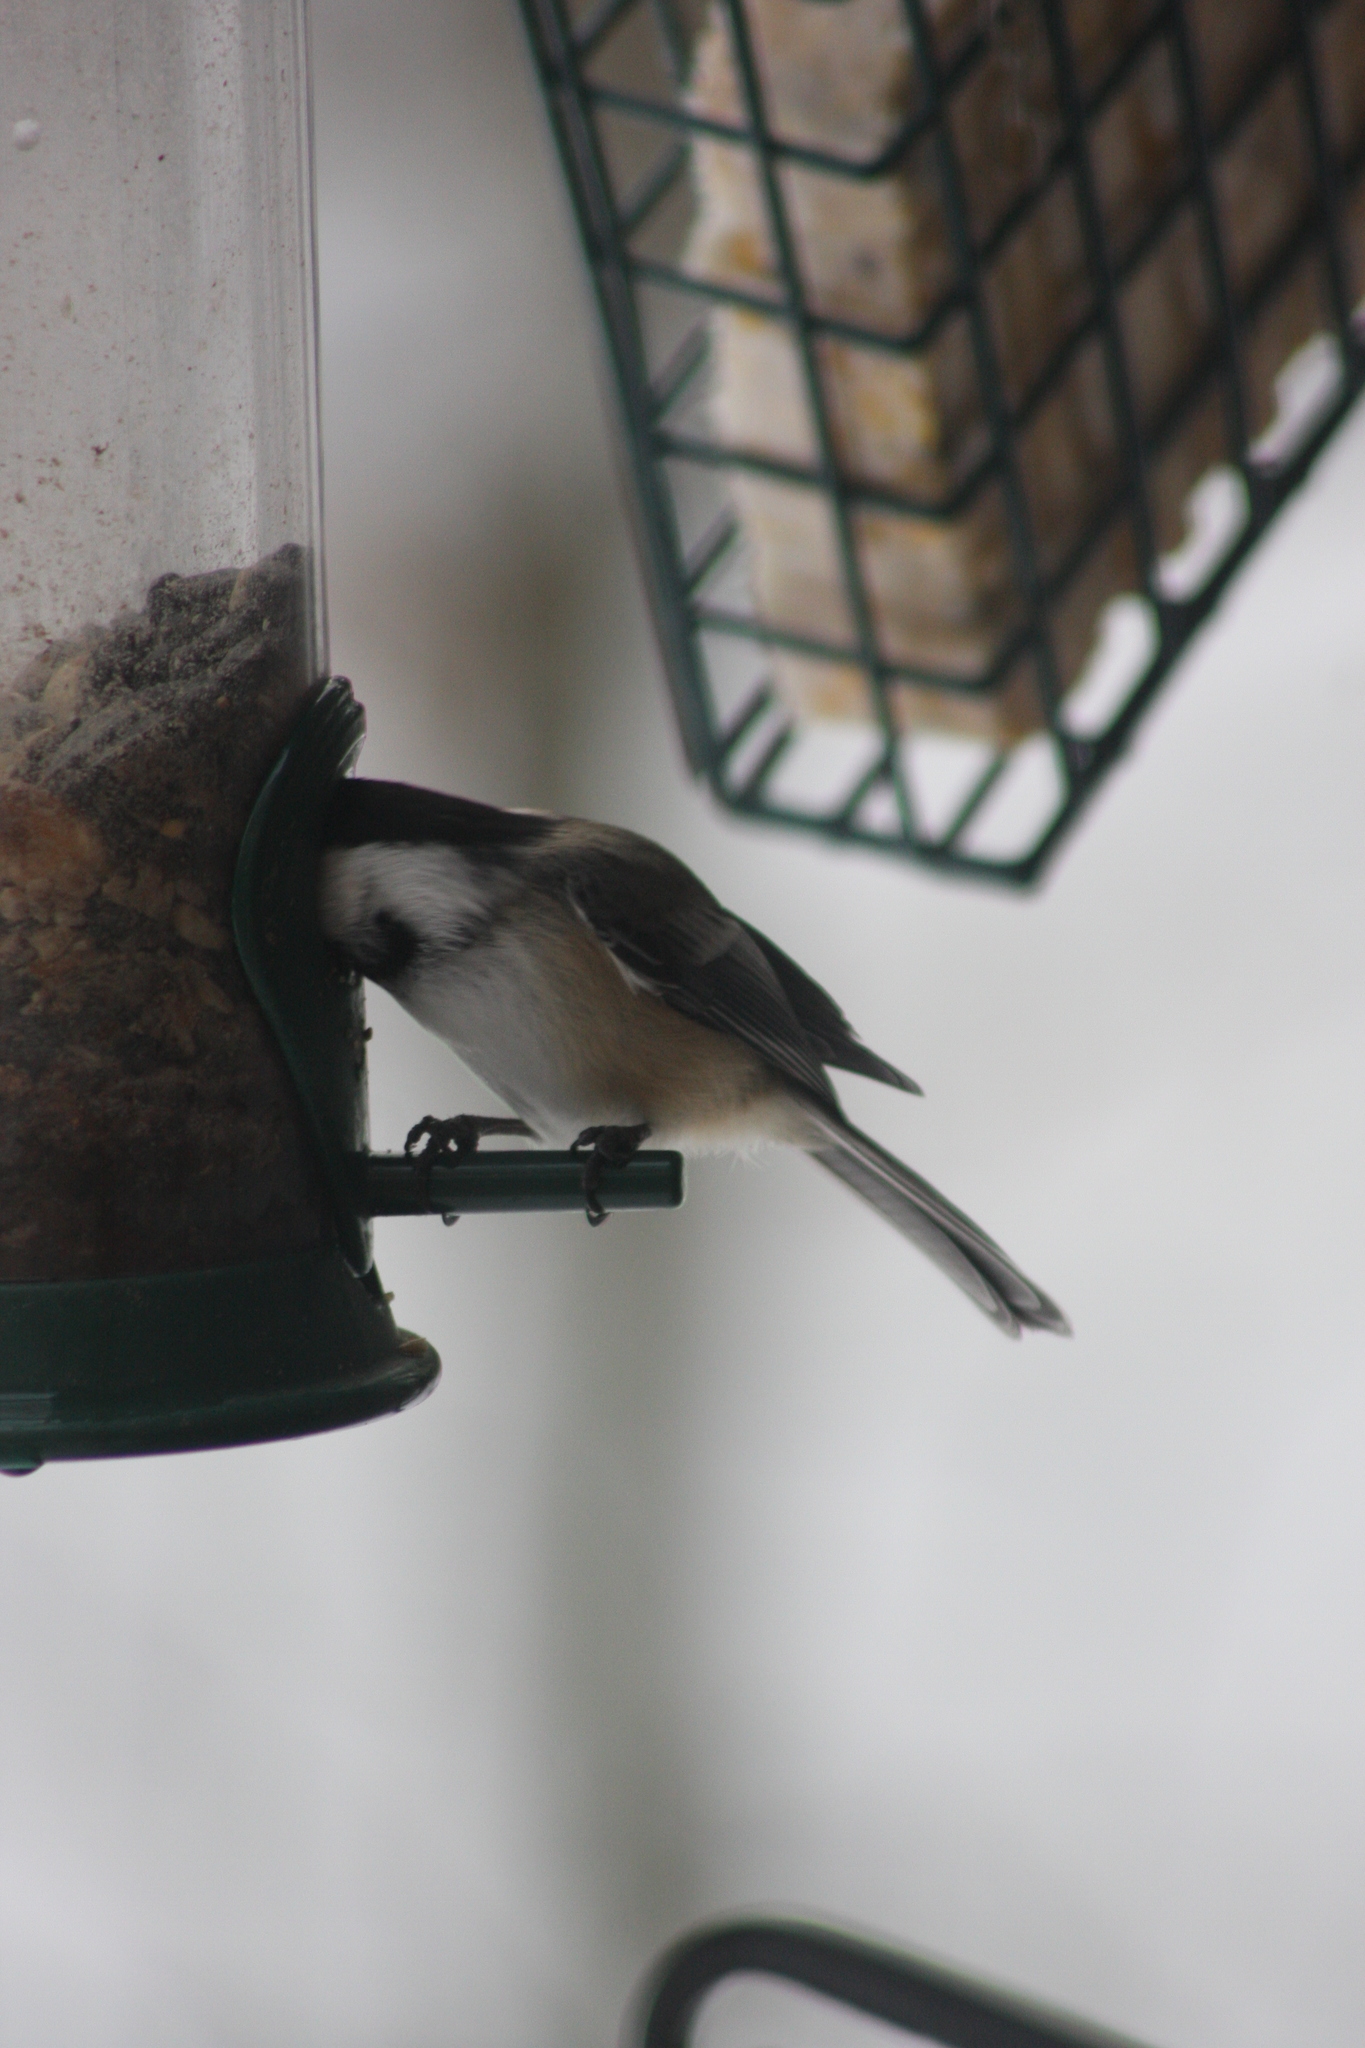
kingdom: Animalia
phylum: Chordata
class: Aves
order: Passeriformes
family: Paridae
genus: Poecile
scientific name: Poecile atricapillus
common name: Black-capped chickadee
